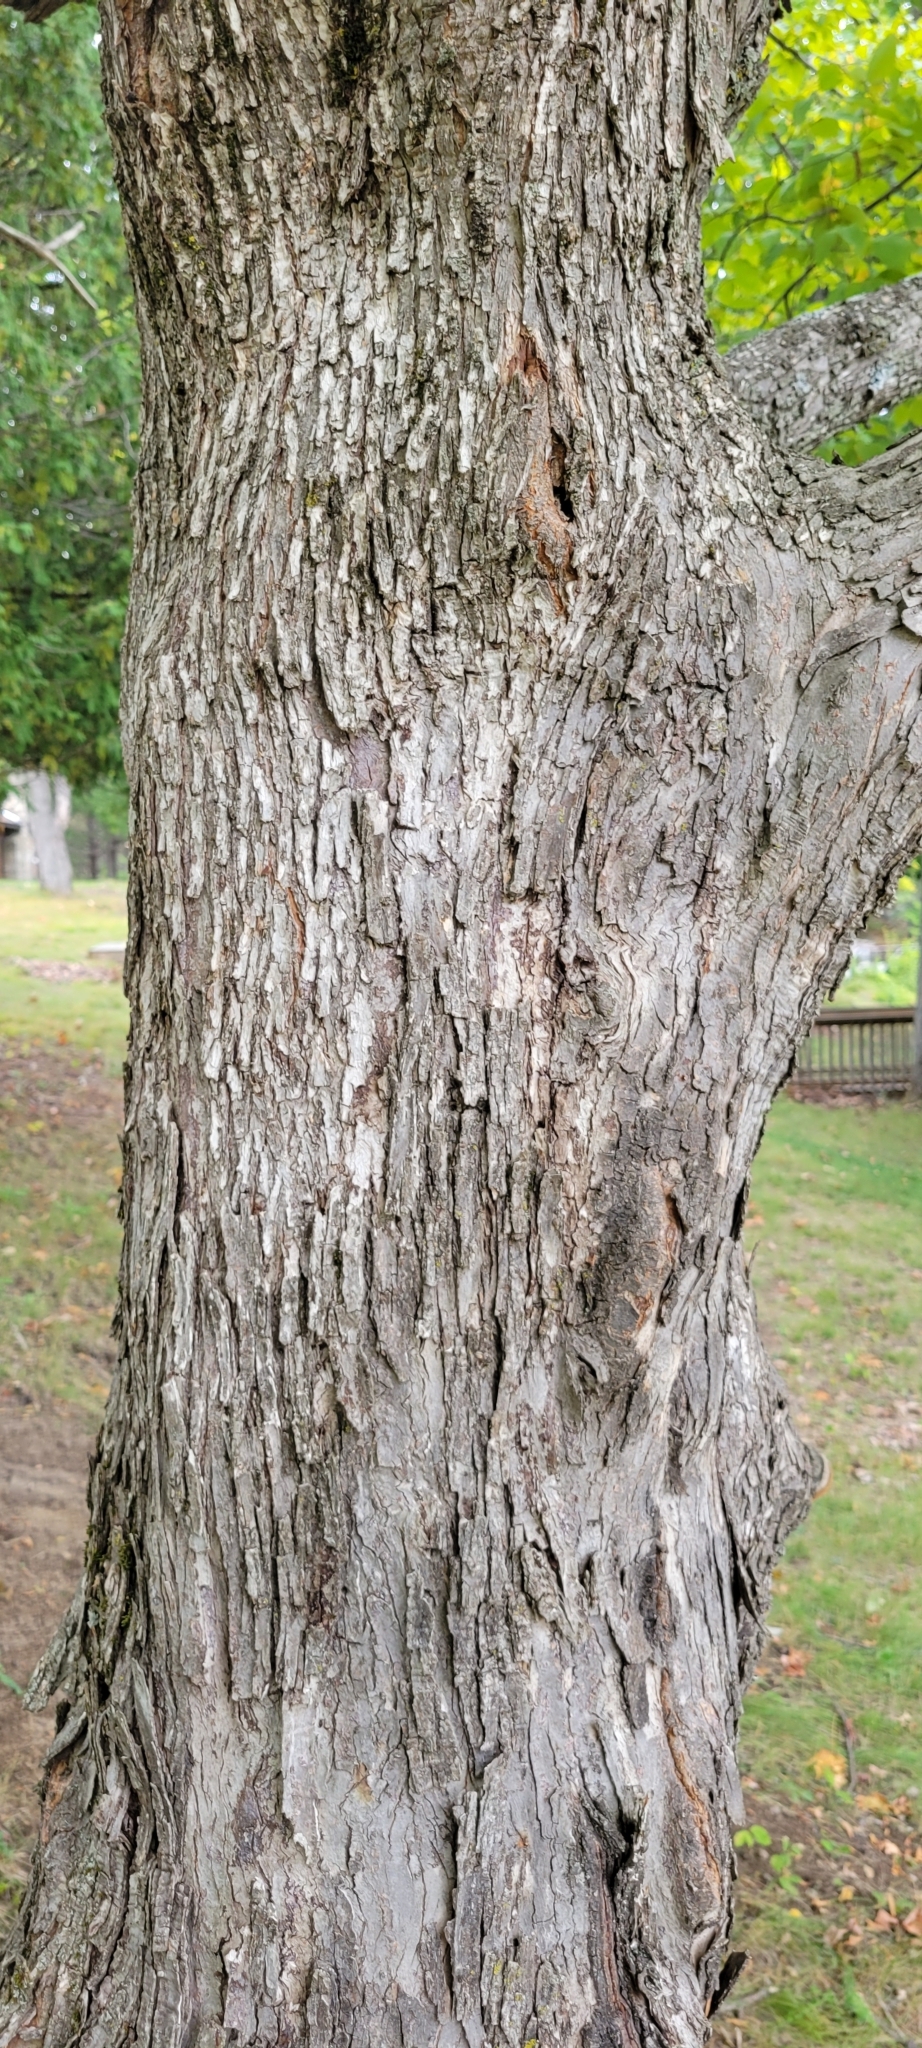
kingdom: Plantae
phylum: Tracheophyta
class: Magnoliopsida
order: Fagales
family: Betulaceae
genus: Ostrya
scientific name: Ostrya virginiana
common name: Ironwood
